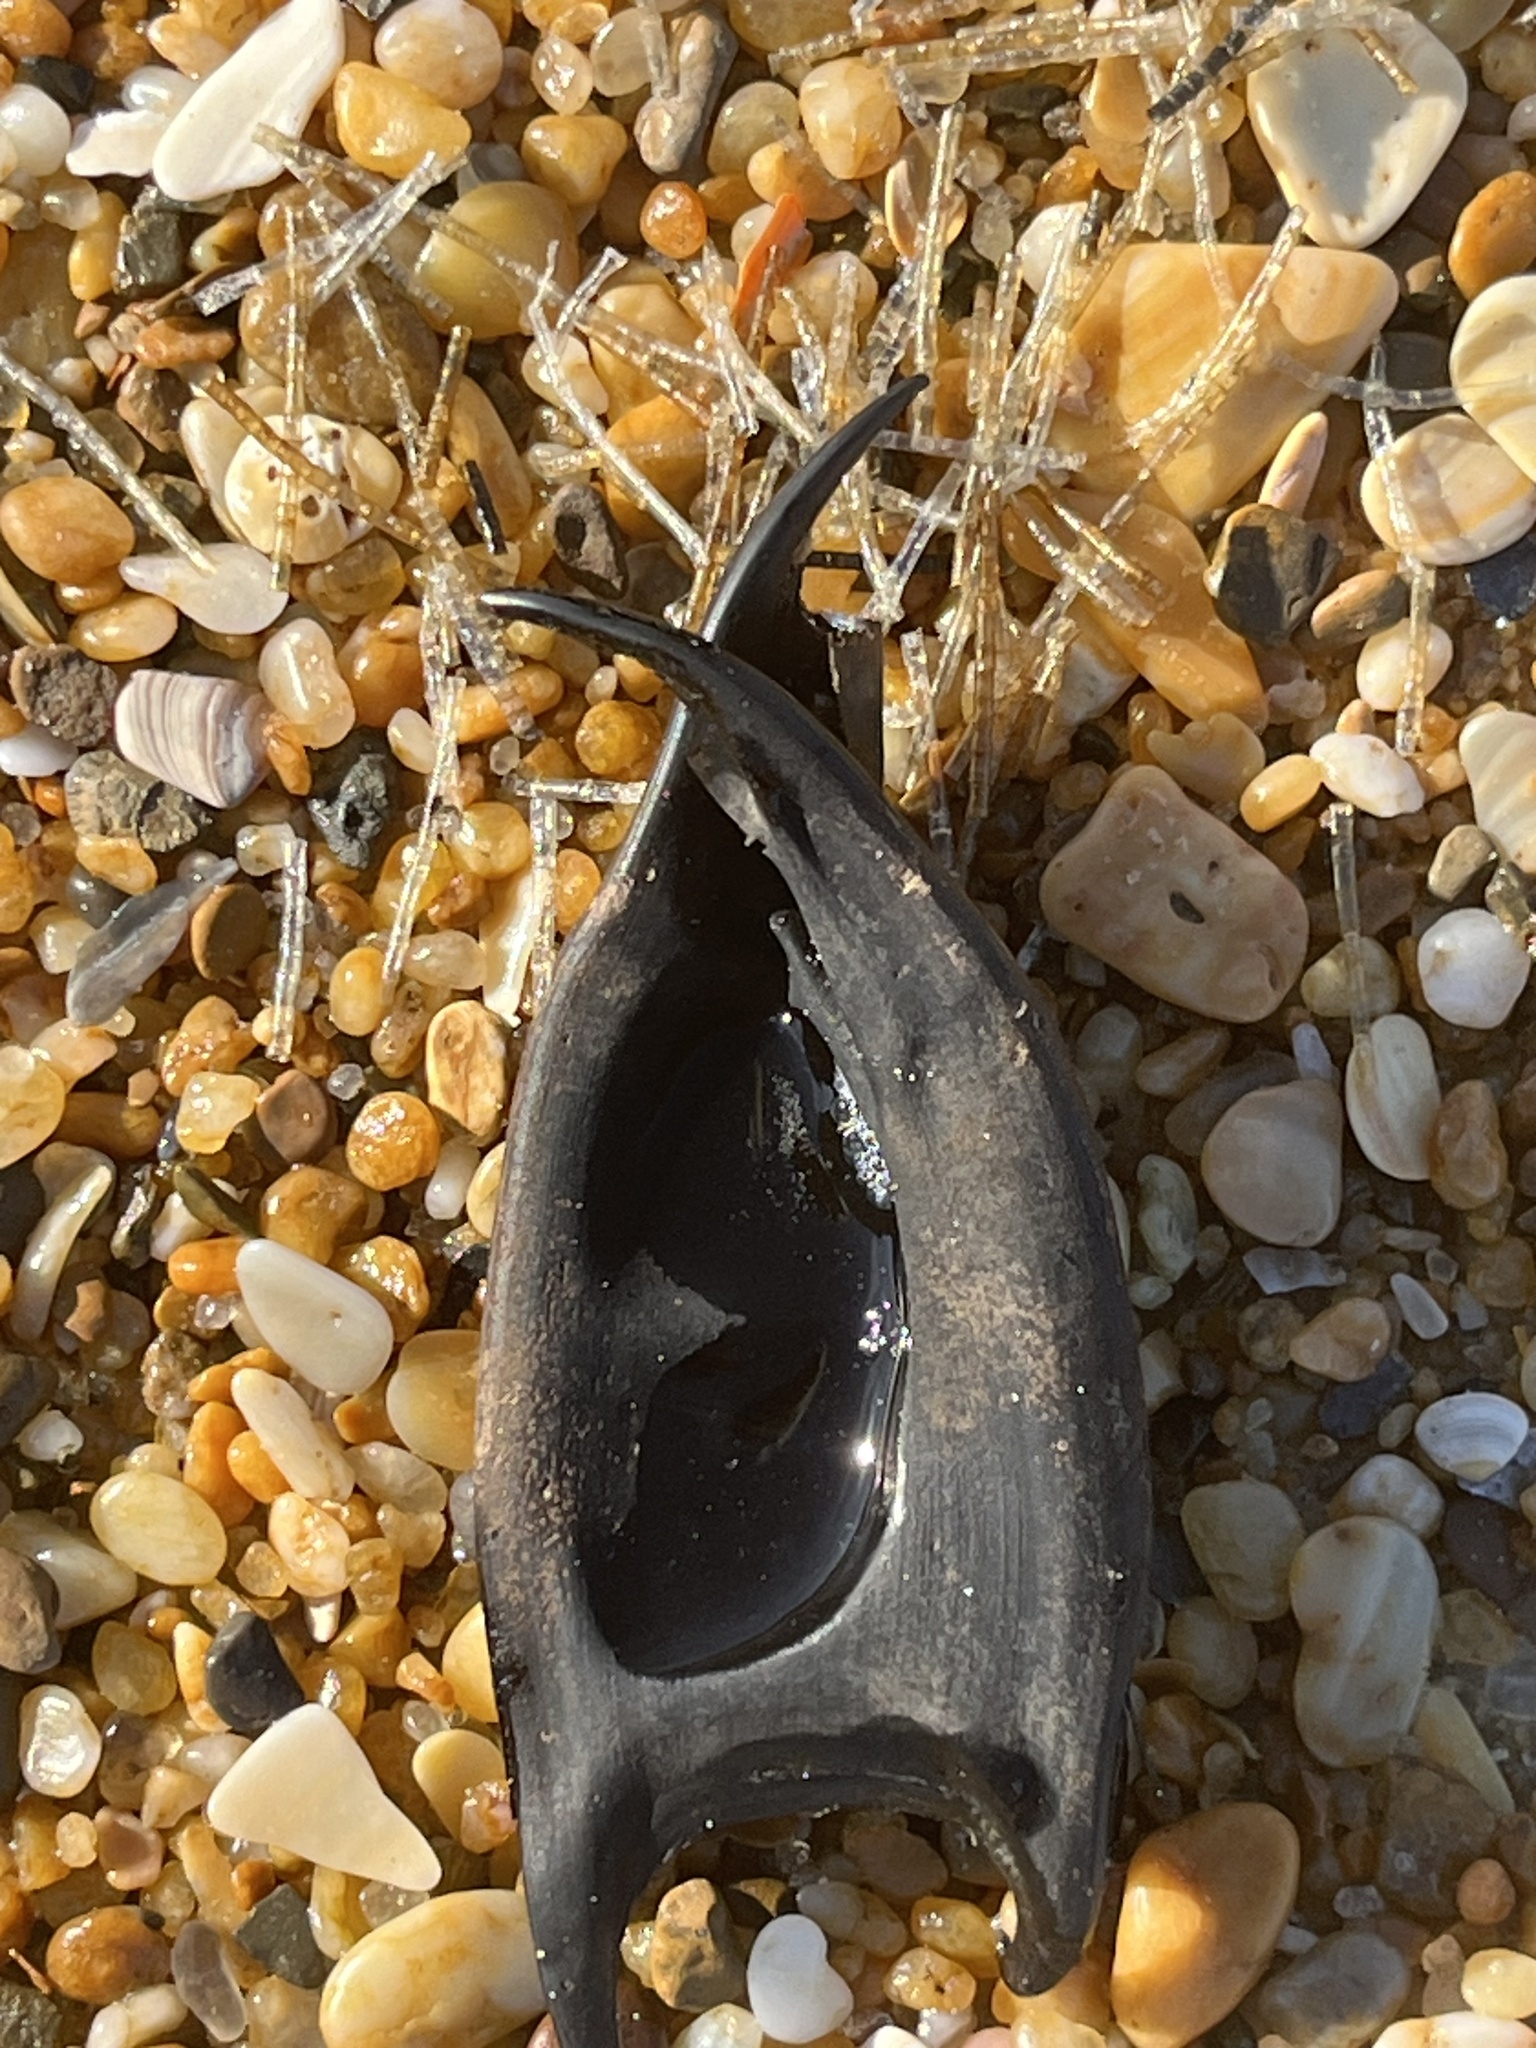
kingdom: Animalia
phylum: Chordata
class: Elasmobranchii
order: Rajiformes
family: Rajidae
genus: Raja
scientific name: Raja eglanteria
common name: Clearnose skate
